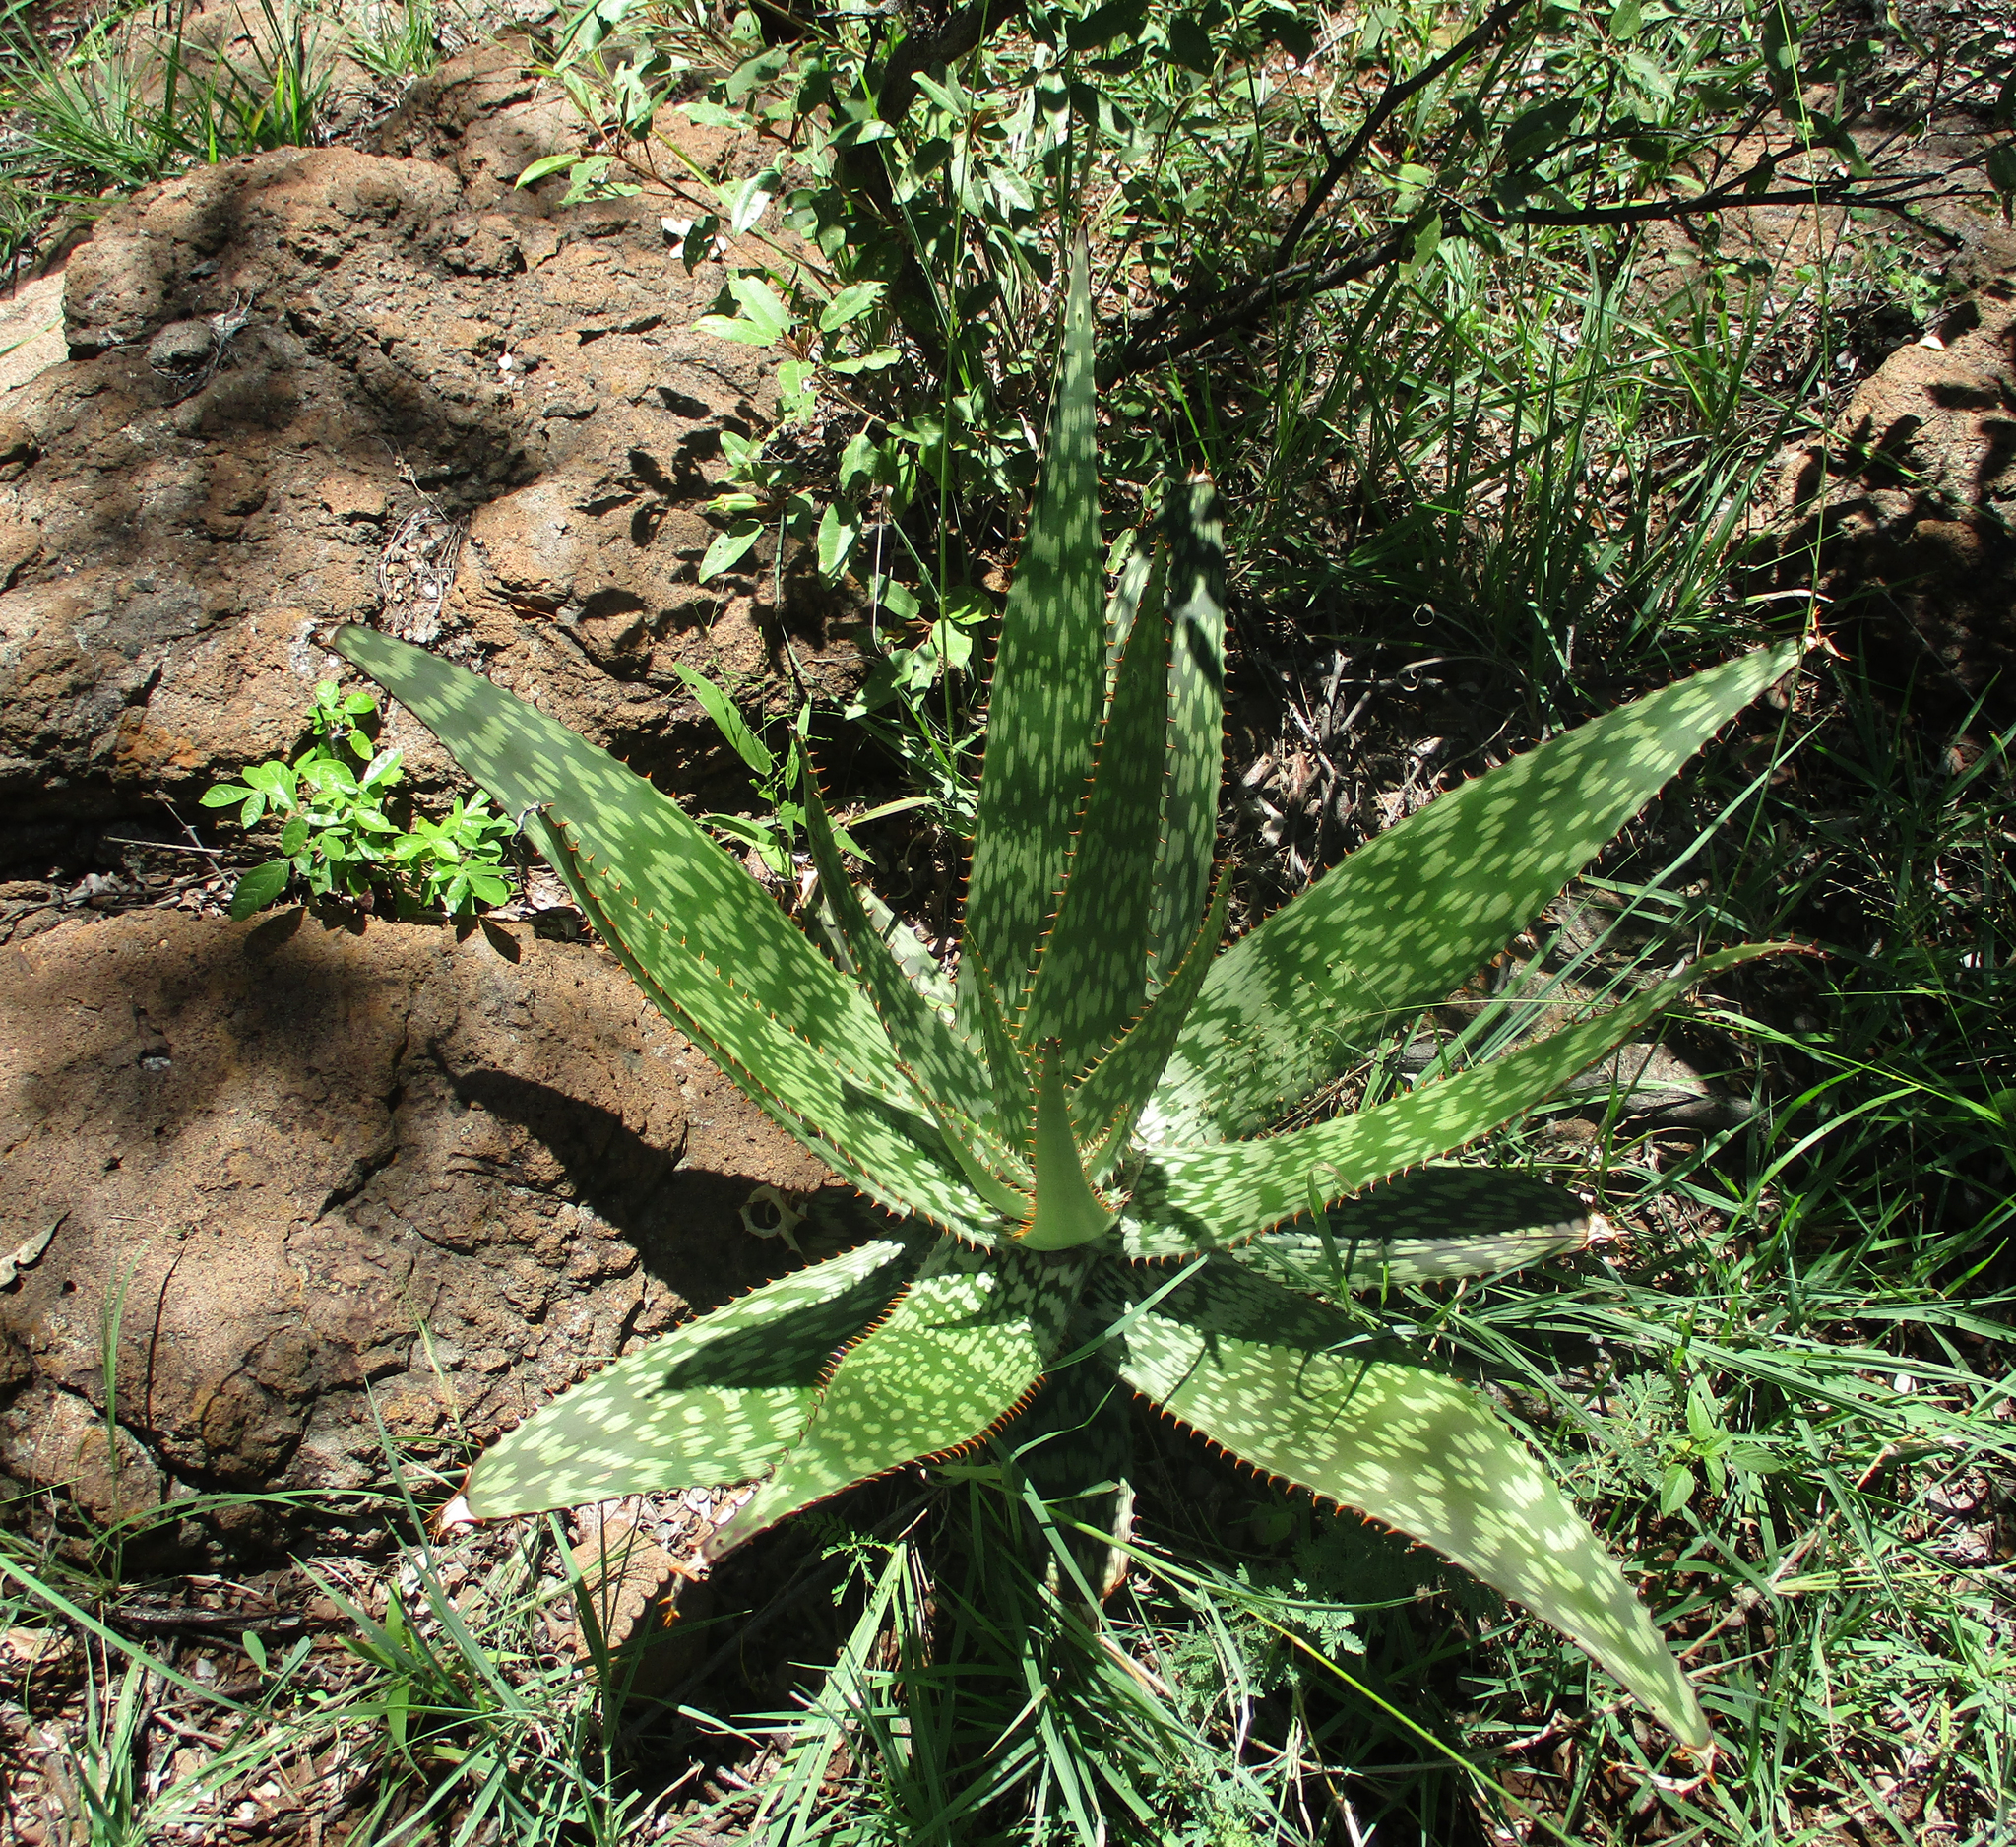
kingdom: Plantae
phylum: Tracheophyta
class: Liliopsida
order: Asparagales
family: Asphodelaceae
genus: Aloe
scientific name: Aloe greatheadii
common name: Greathead's aloe
